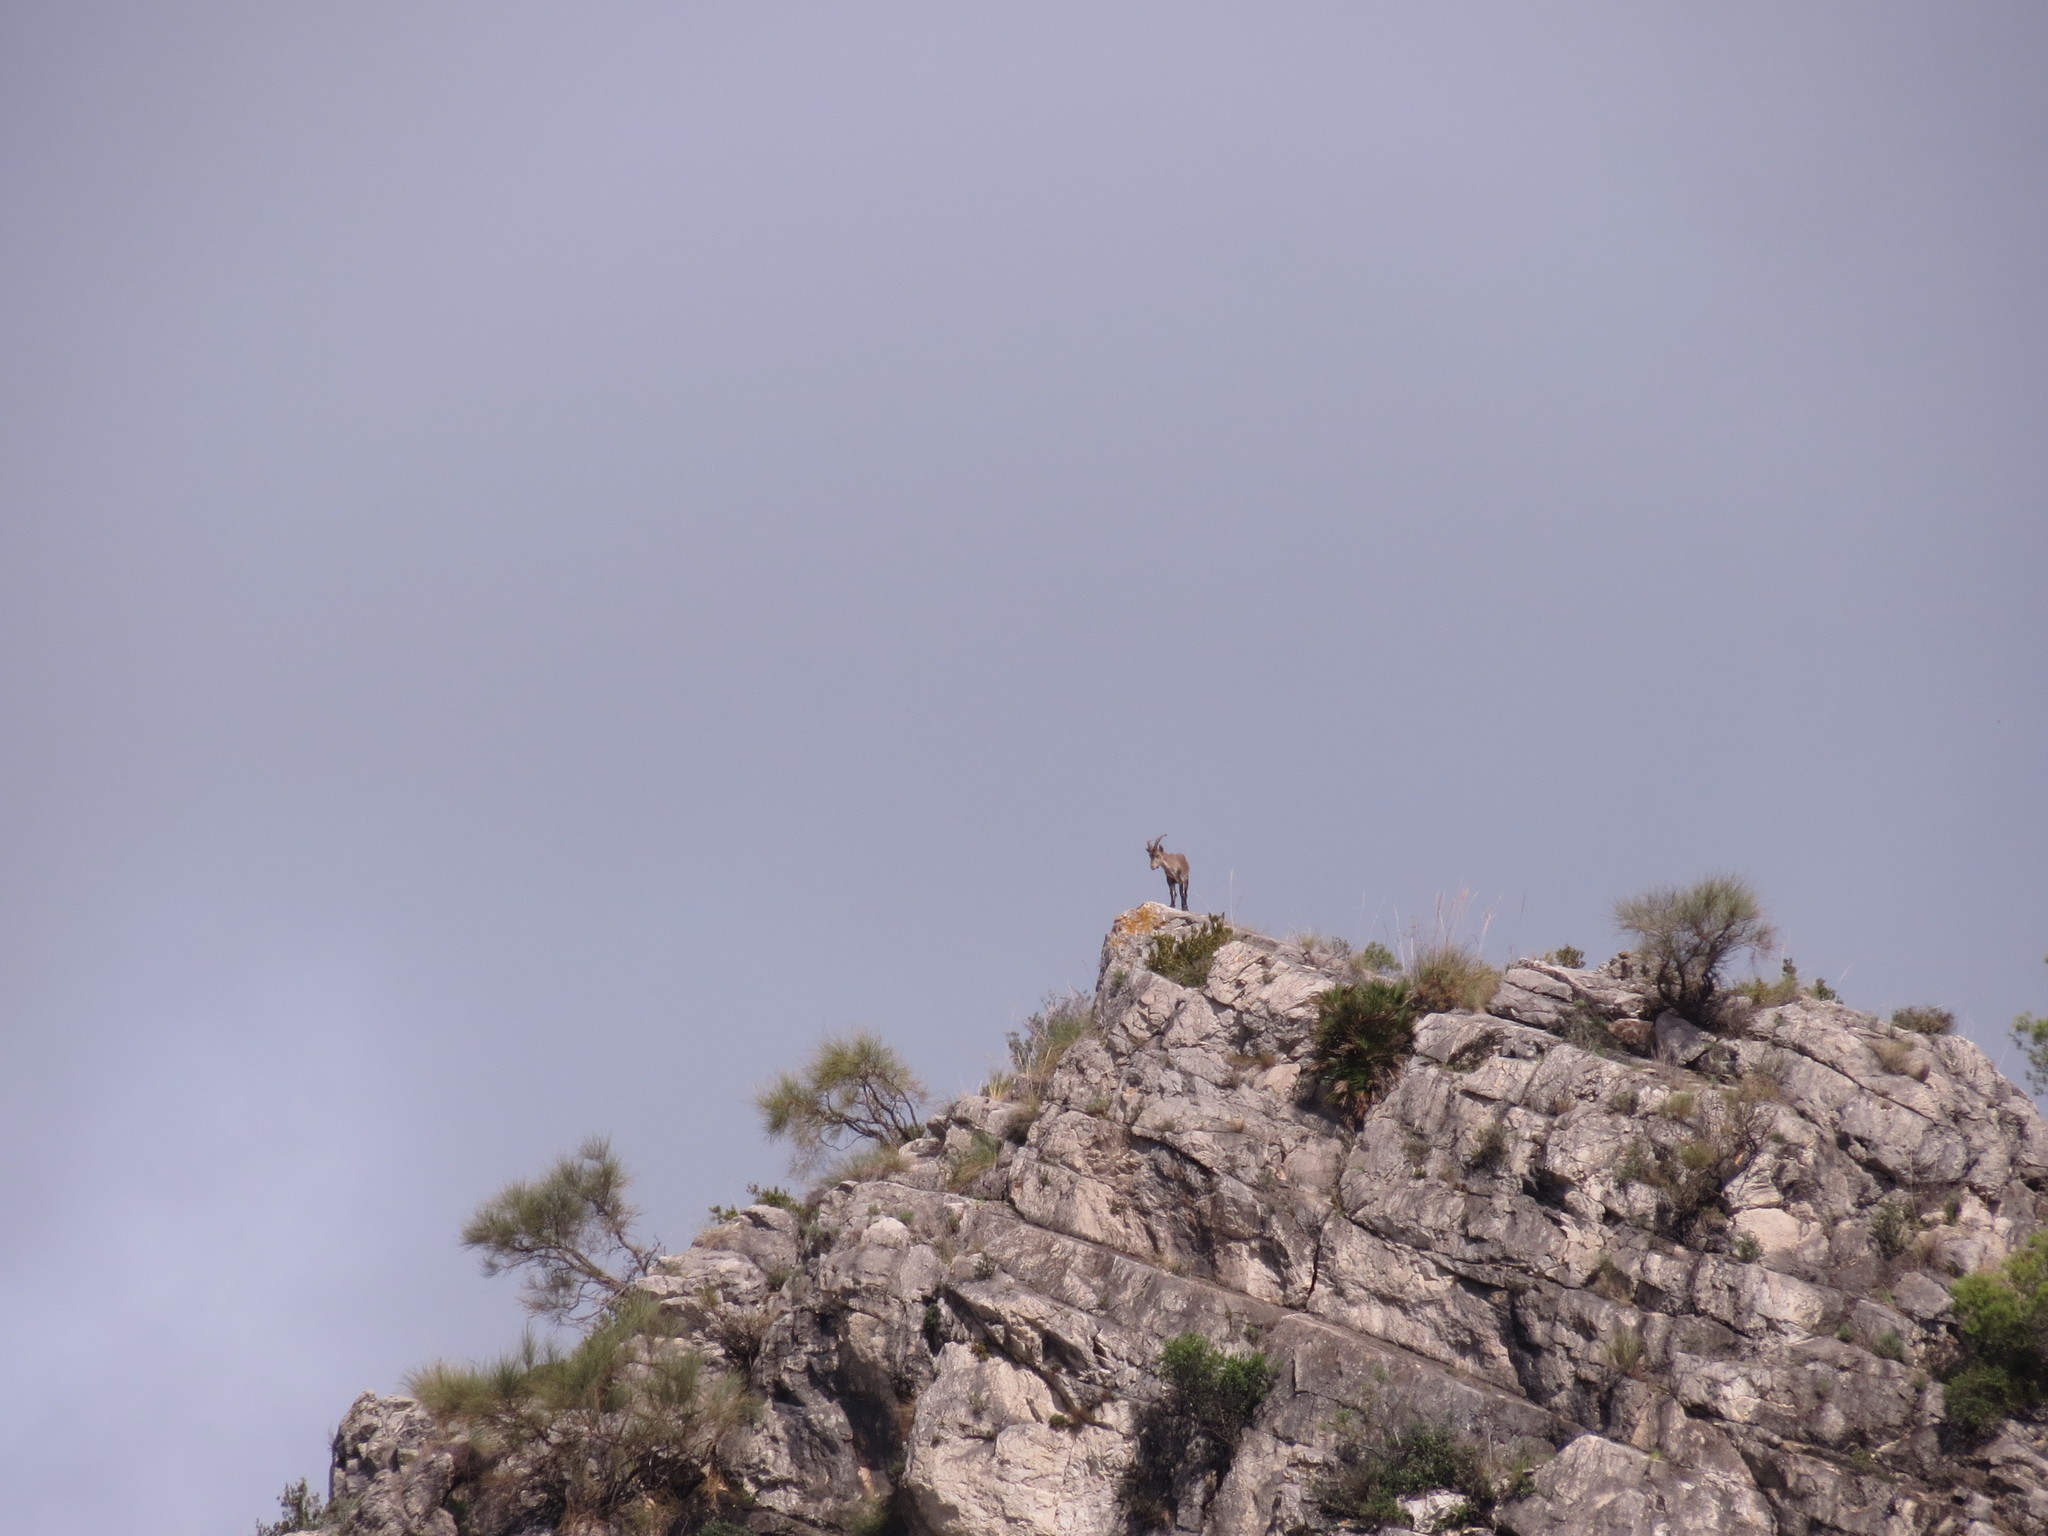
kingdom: Animalia
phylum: Chordata
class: Mammalia
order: Artiodactyla
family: Bovidae
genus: Capra
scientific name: Capra pyrenaica
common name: Spanish ibex
